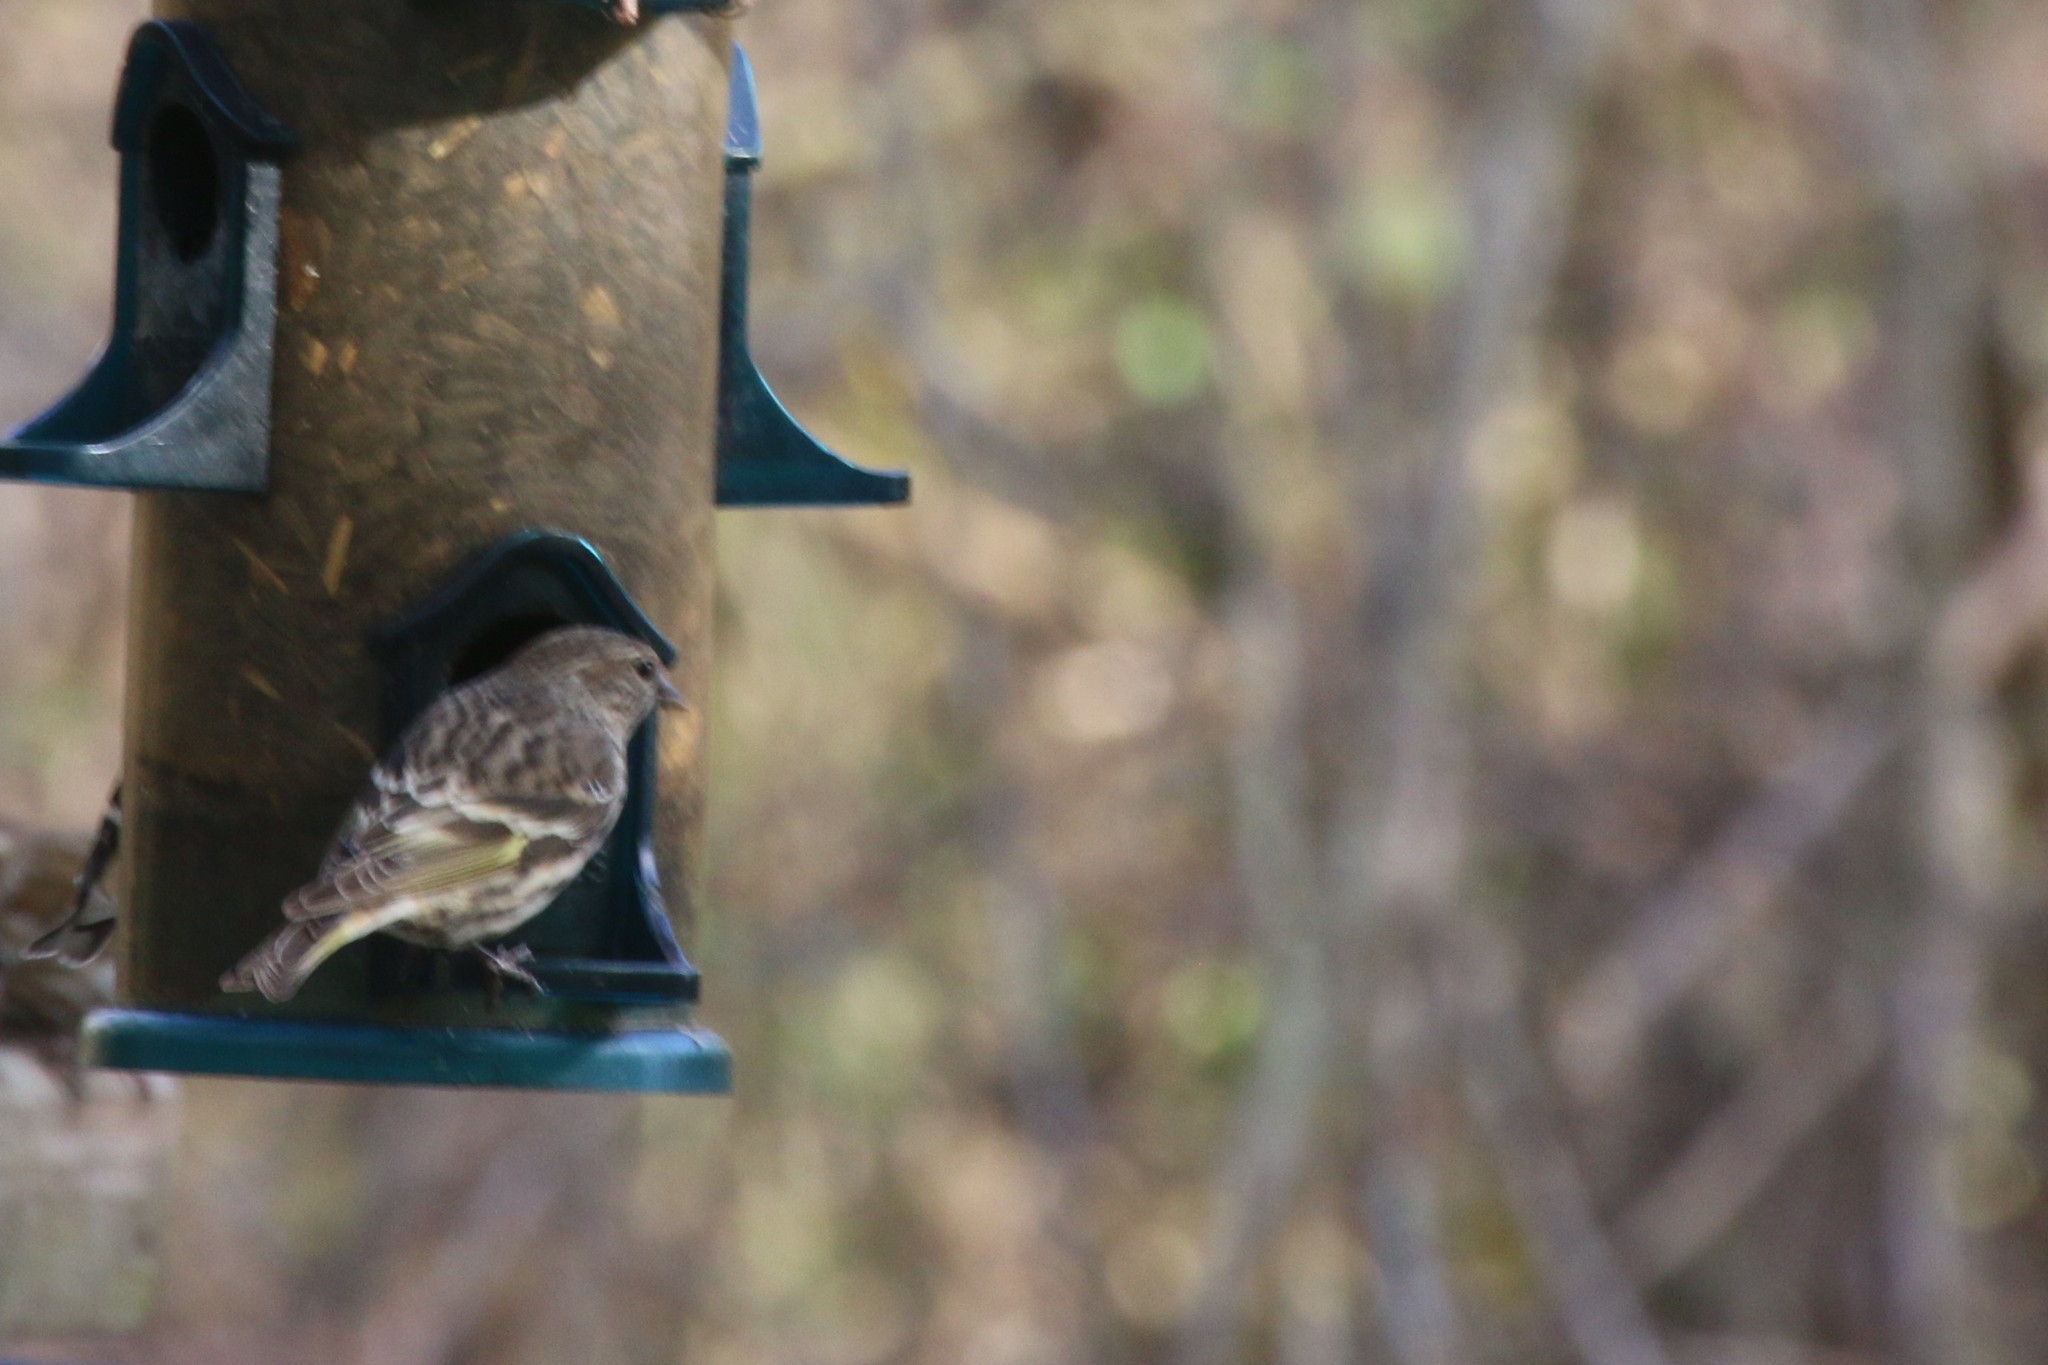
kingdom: Animalia
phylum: Chordata
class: Aves
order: Passeriformes
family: Fringillidae
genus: Spinus
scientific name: Spinus pinus
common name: Pine siskin
